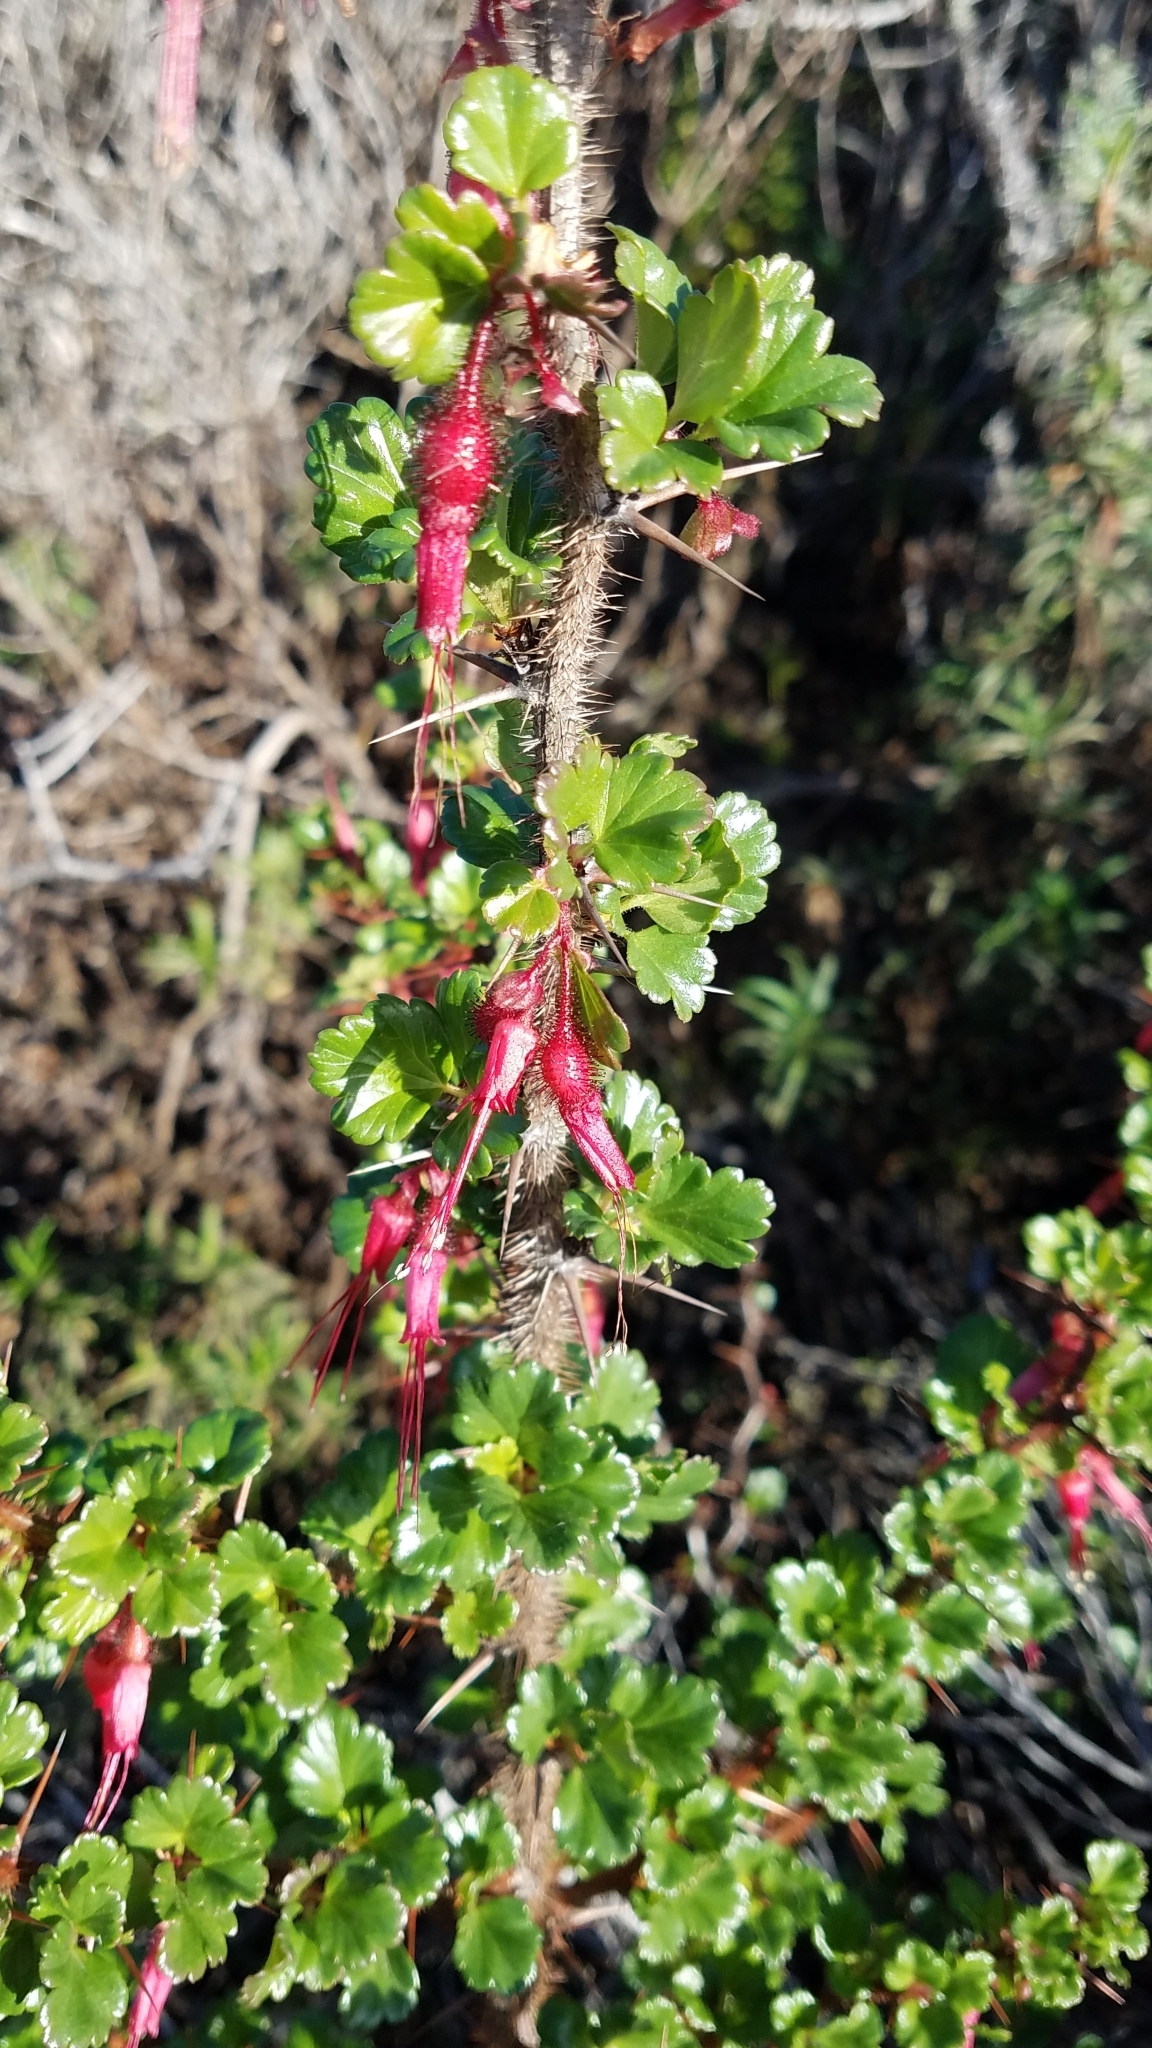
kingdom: Plantae
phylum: Tracheophyta
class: Magnoliopsida
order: Saxifragales
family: Grossulariaceae
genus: Ribes
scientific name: Ribes speciosum
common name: Fuchsia-flower gooseberry
